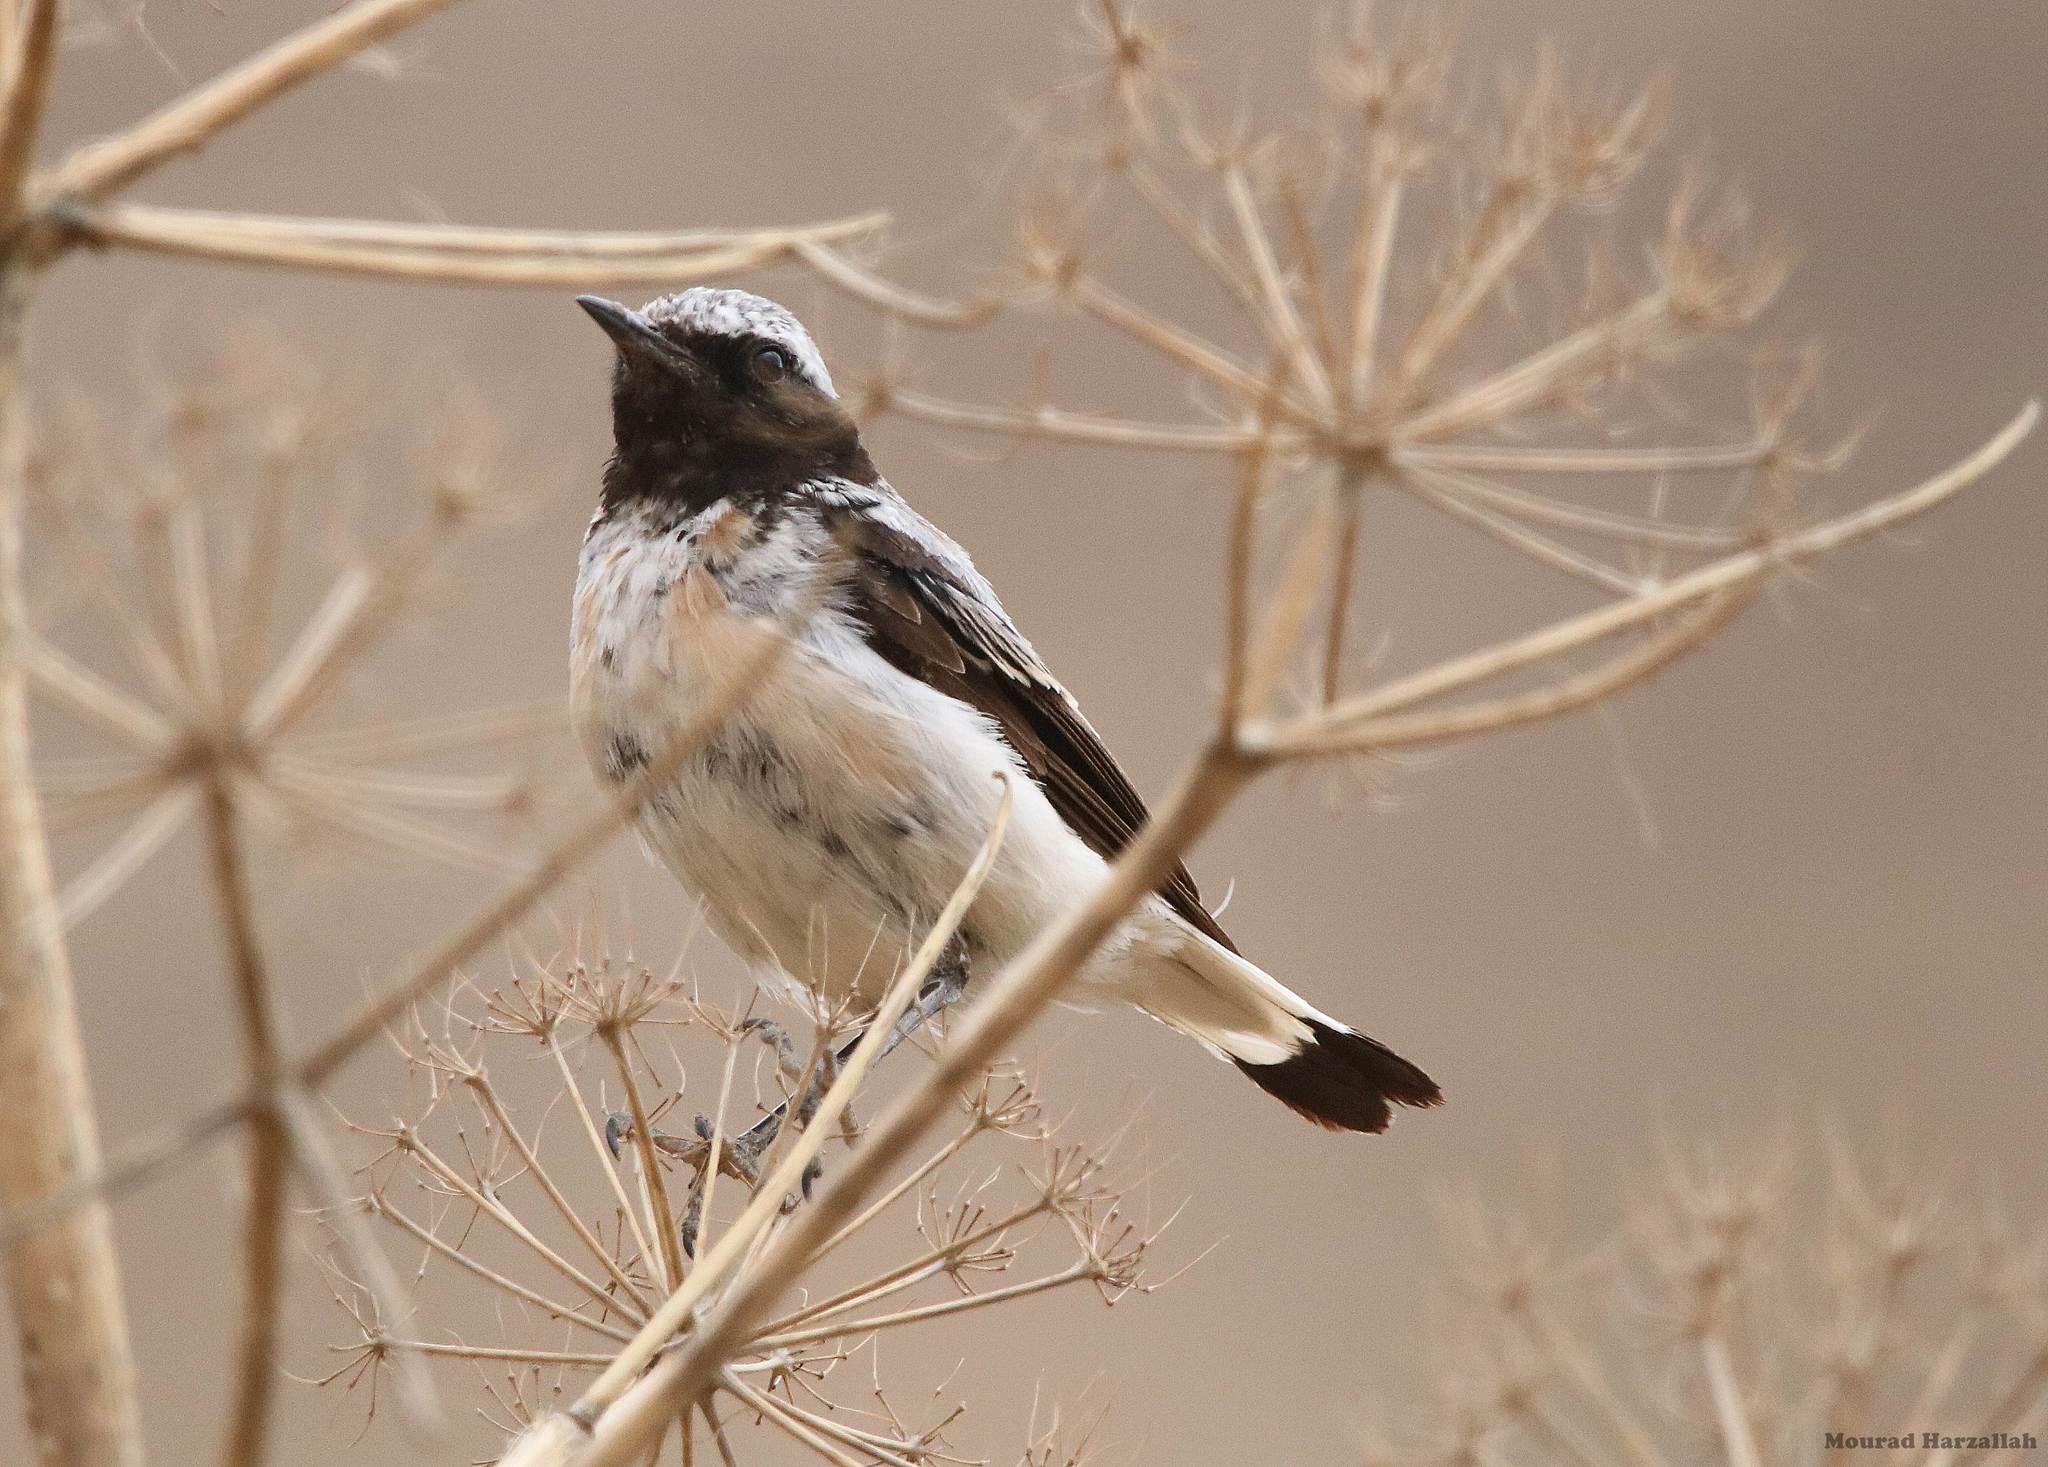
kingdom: Animalia
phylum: Chordata
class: Aves
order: Passeriformes
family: Muscicapidae
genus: Oenanthe
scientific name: Oenanthe oenanthe
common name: Northern wheatear
